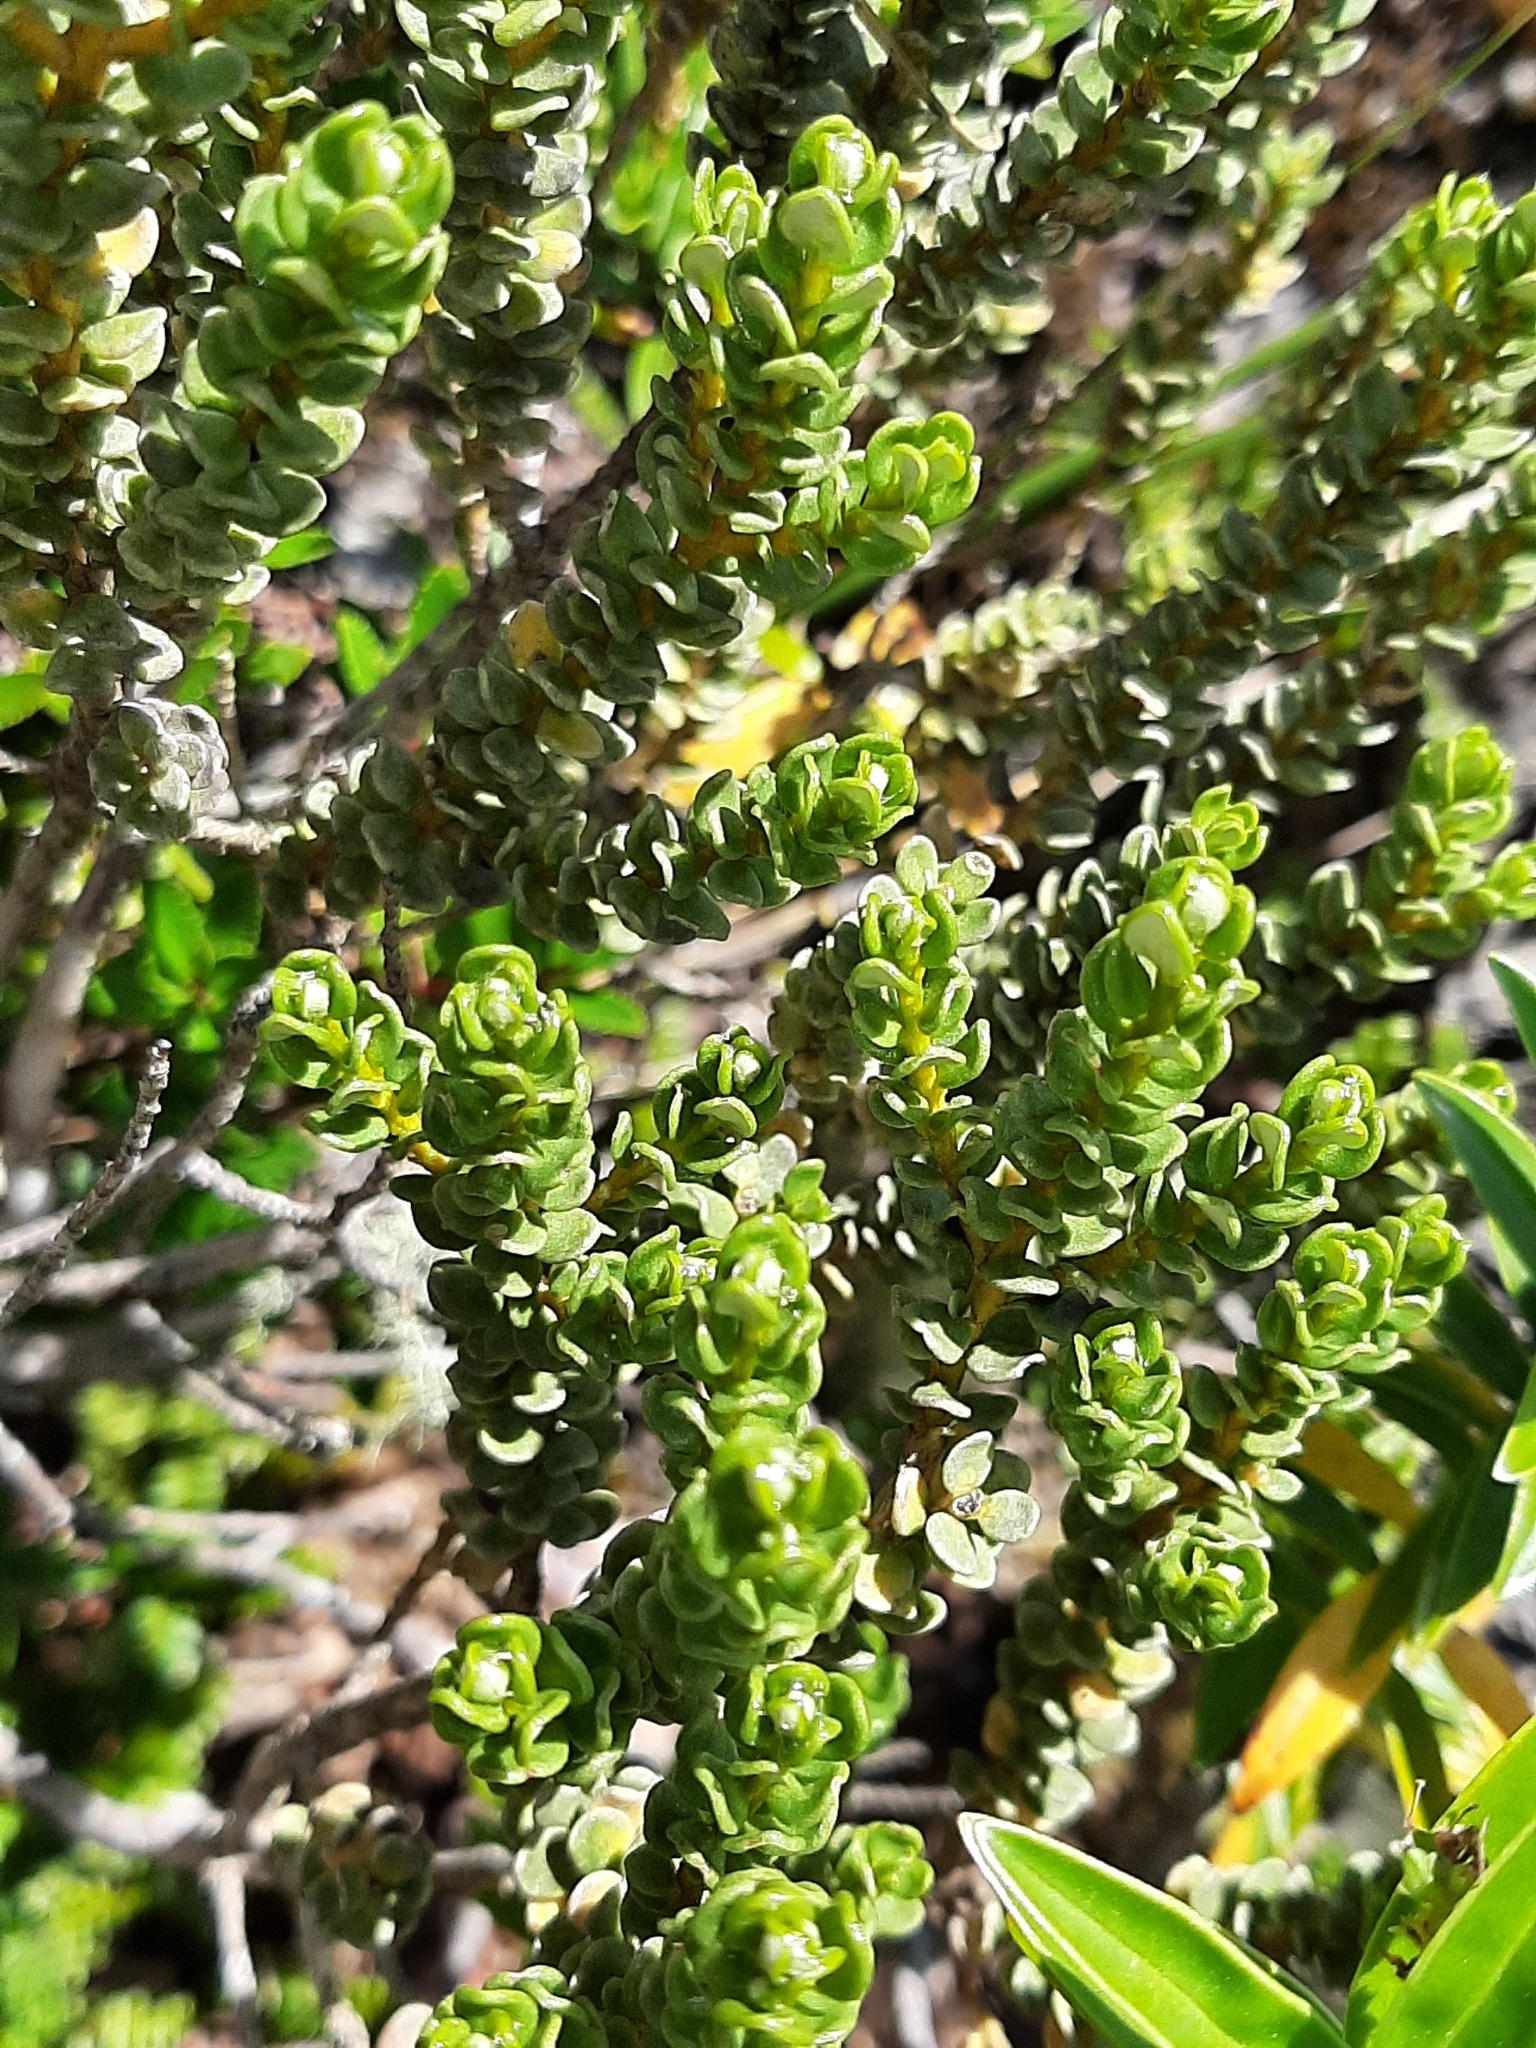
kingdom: Plantae
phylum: Tracheophyta
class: Magnoliopsida
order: Asterales
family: Asteraceae
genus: Olearia
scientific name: Olearia nummularifolia
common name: Sticky daisybush
